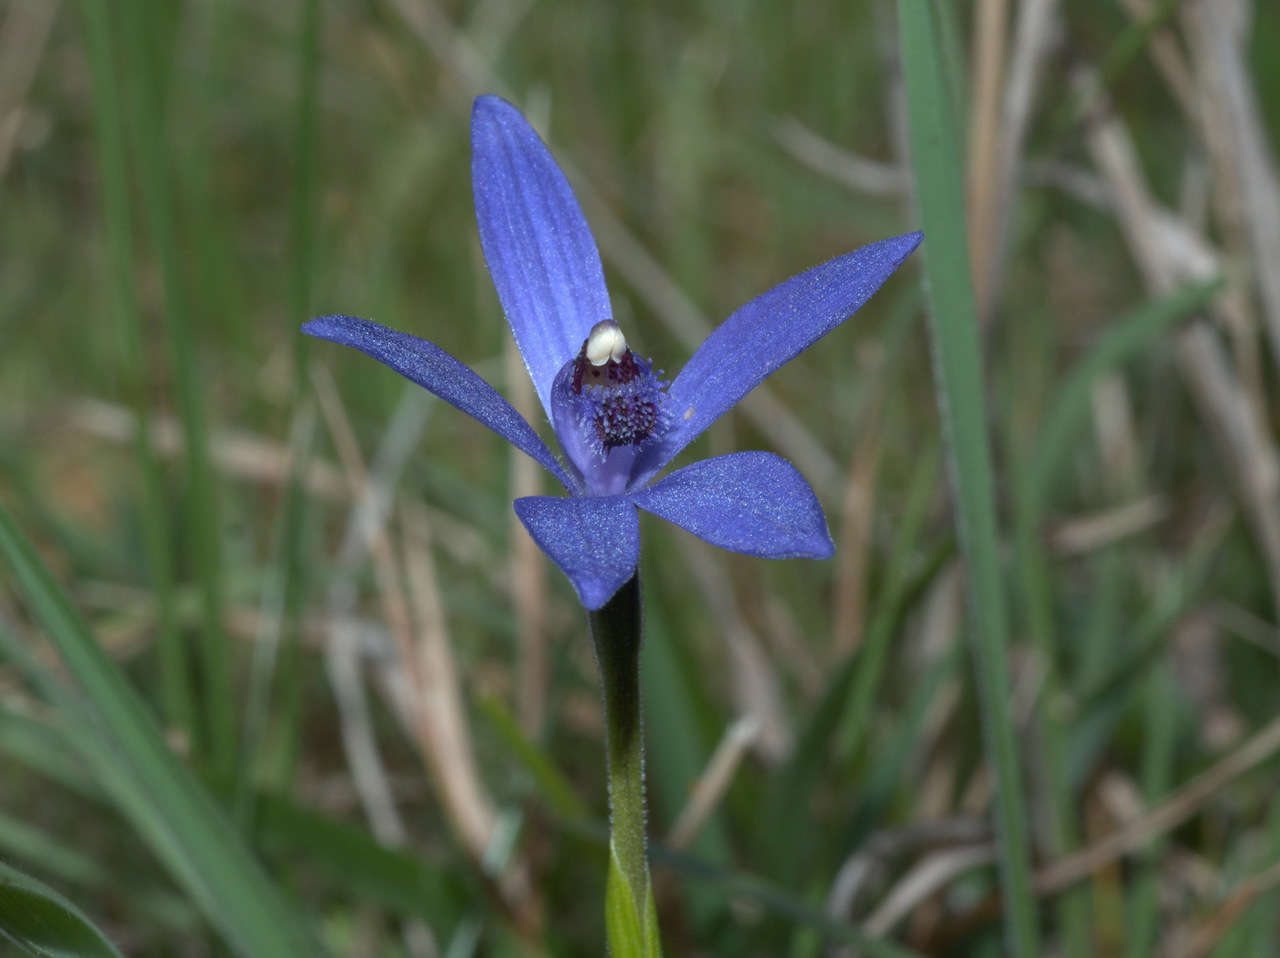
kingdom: Plantae
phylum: Tracheophyta
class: Liliopsida
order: Asparagales
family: Orchidaceae
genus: Pheladenia
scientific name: Pheladenia deformis
